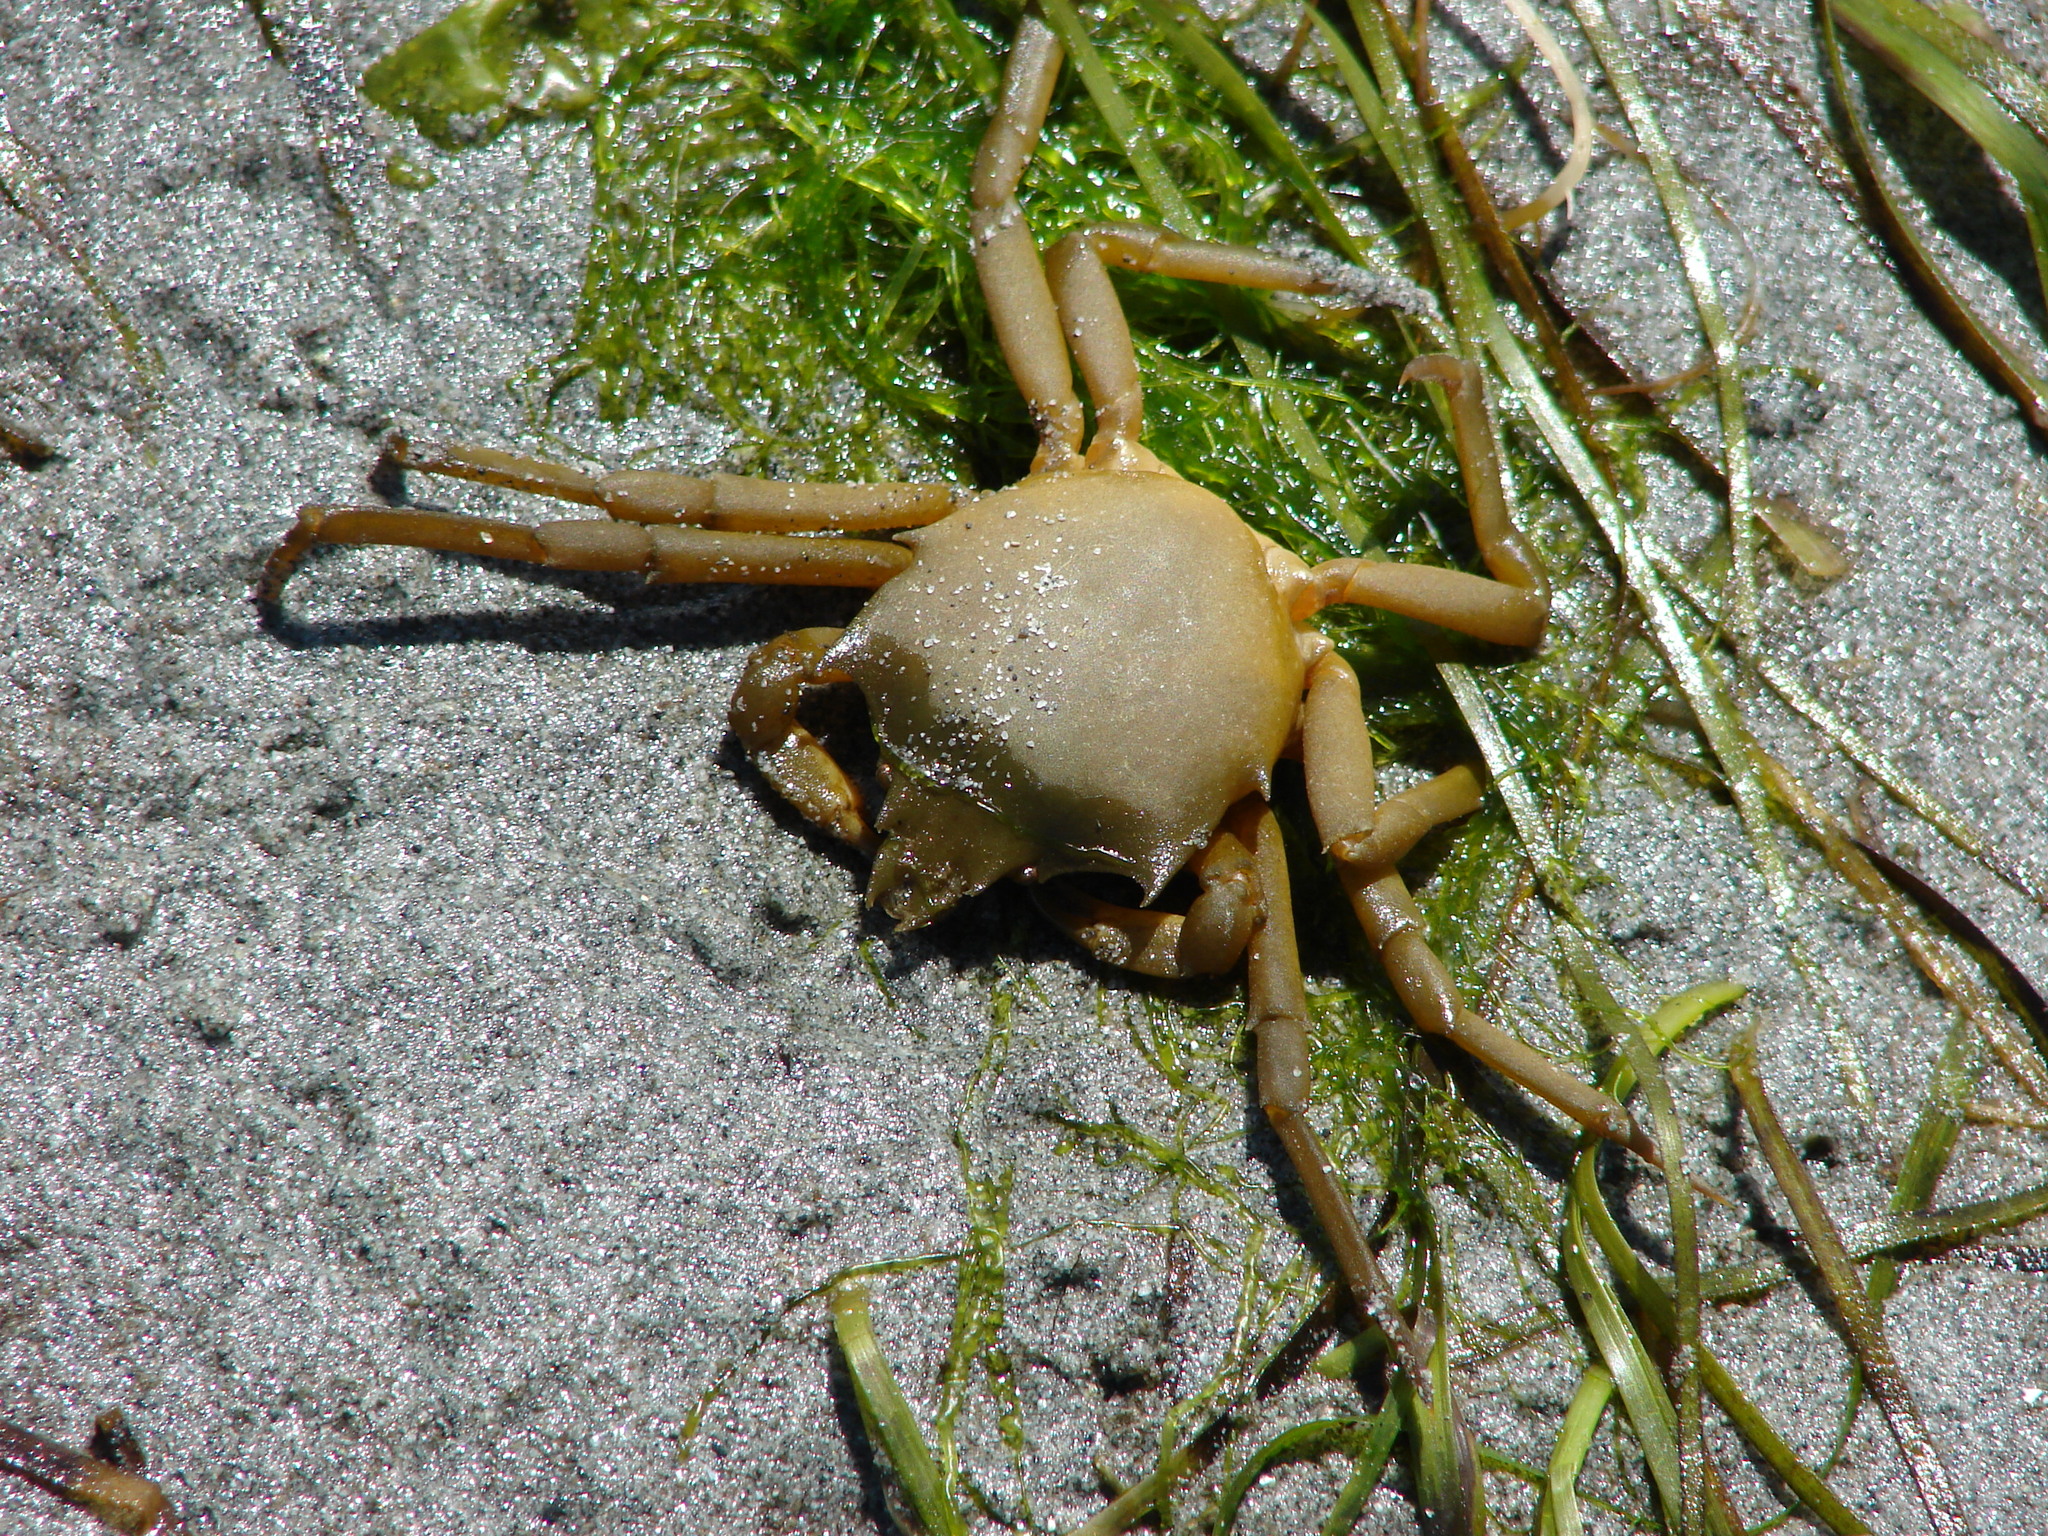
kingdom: Animalia
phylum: Arthropoda
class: Malacostraca
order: Decapoda
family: Epialtidae
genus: Pugettia
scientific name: Pugettia producta
